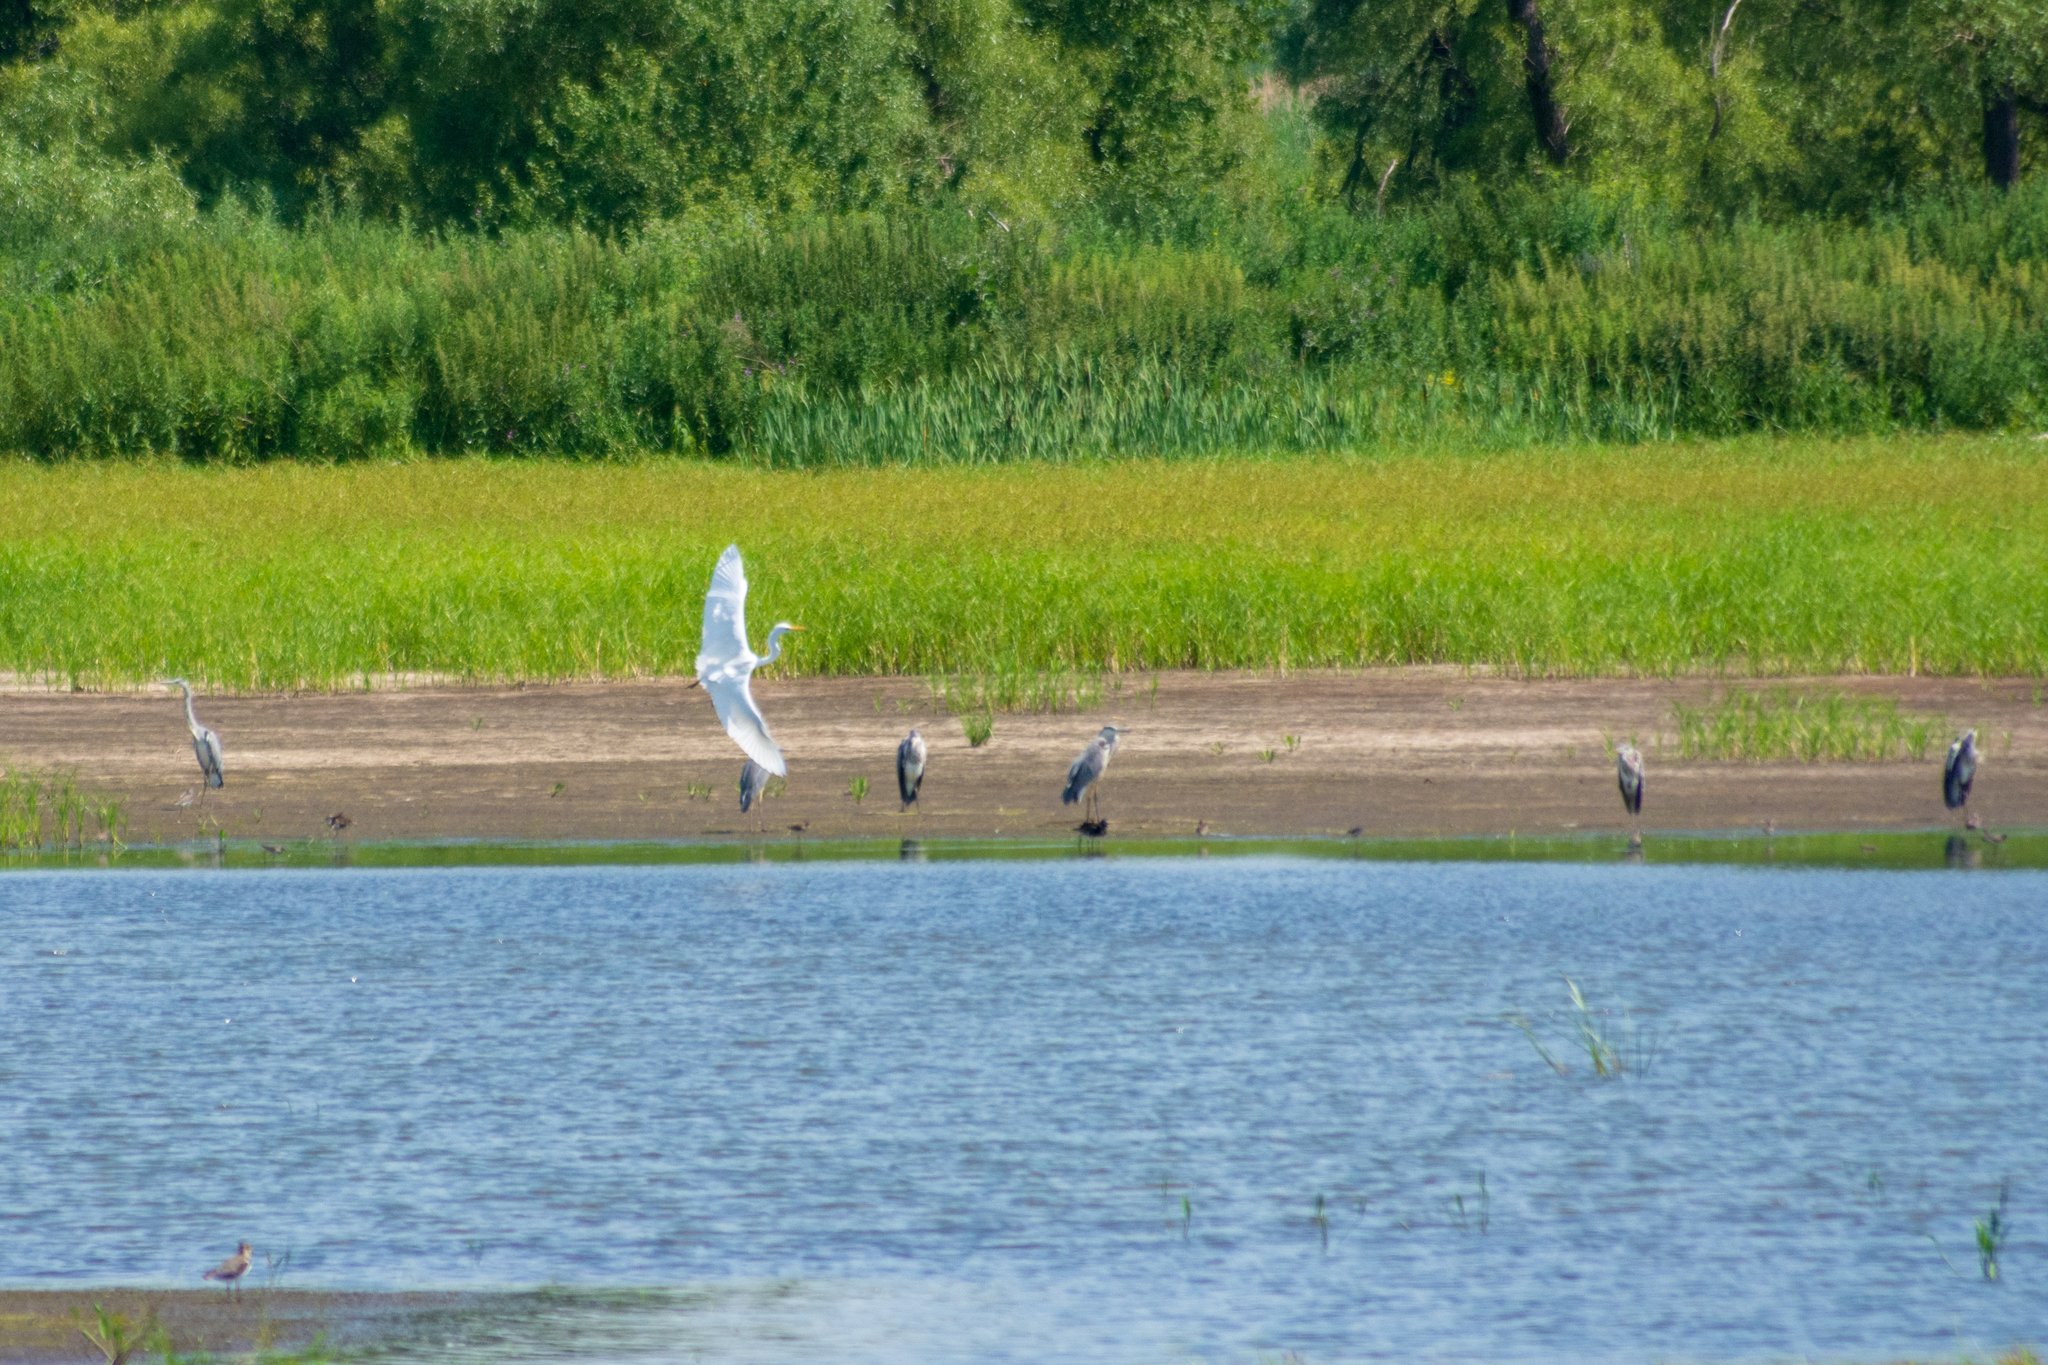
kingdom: Animalia
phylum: Chordata
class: Aves
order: Pelecaniformes
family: Ardeidae
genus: Ardea
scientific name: Ardea alba
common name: Great egret
